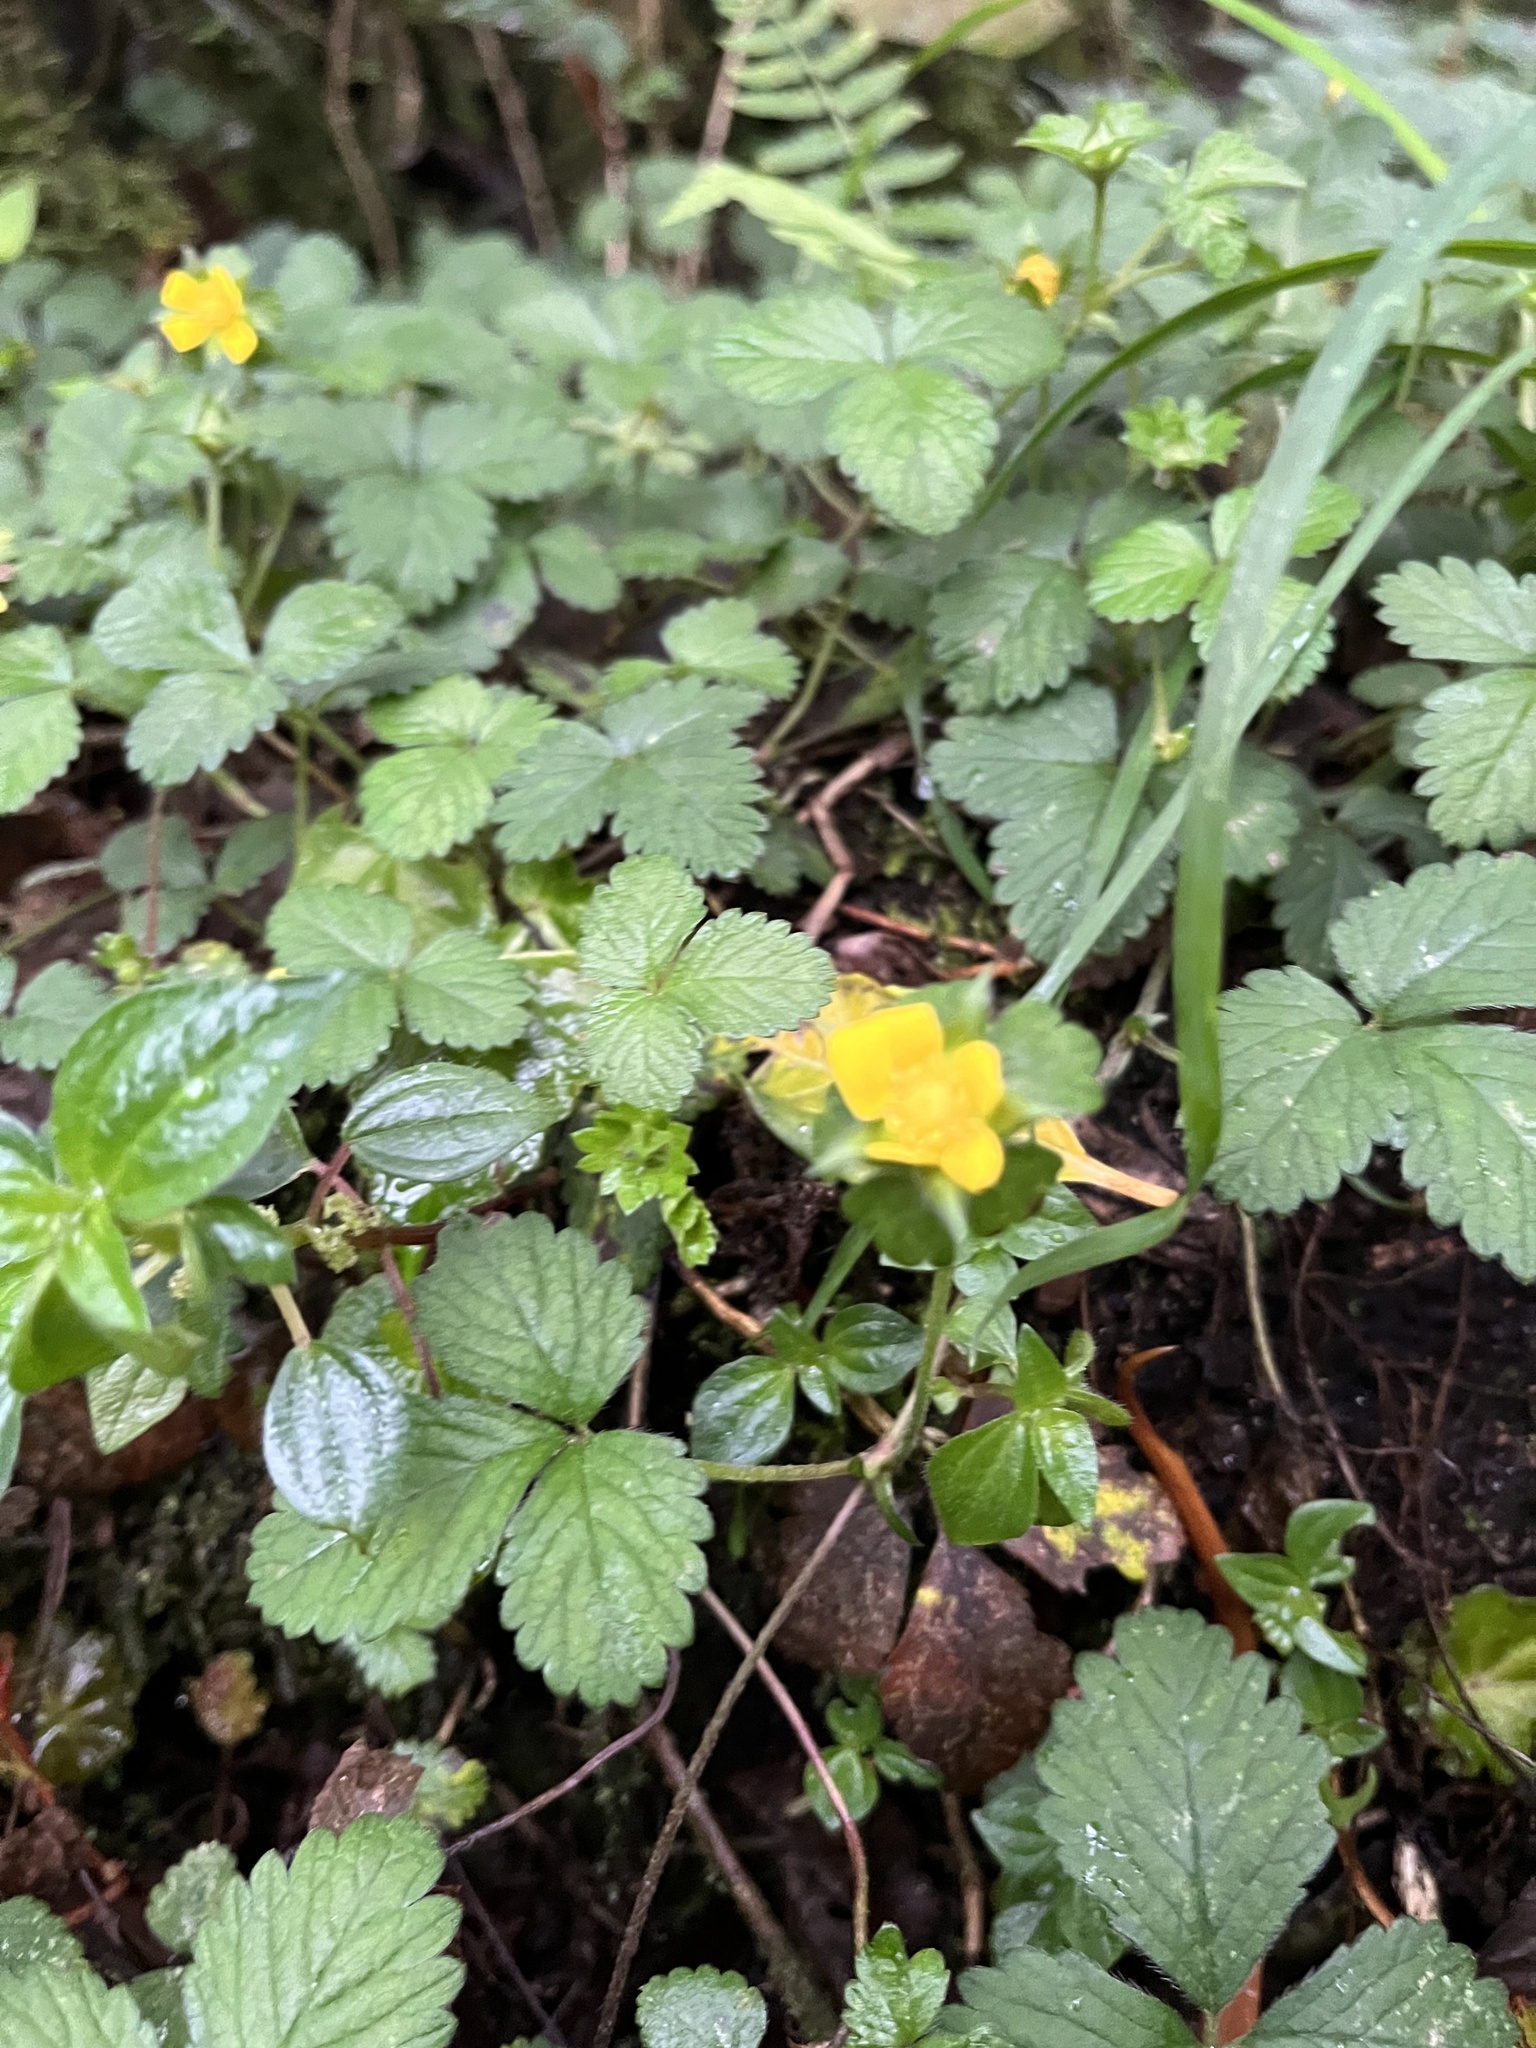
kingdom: Plantae
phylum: Tracheophyta
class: Magnoliopsida
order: Rosales
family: Rosaceae
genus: Potentilla
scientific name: Potentilla indica
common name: Yellow-flowered strawberry
